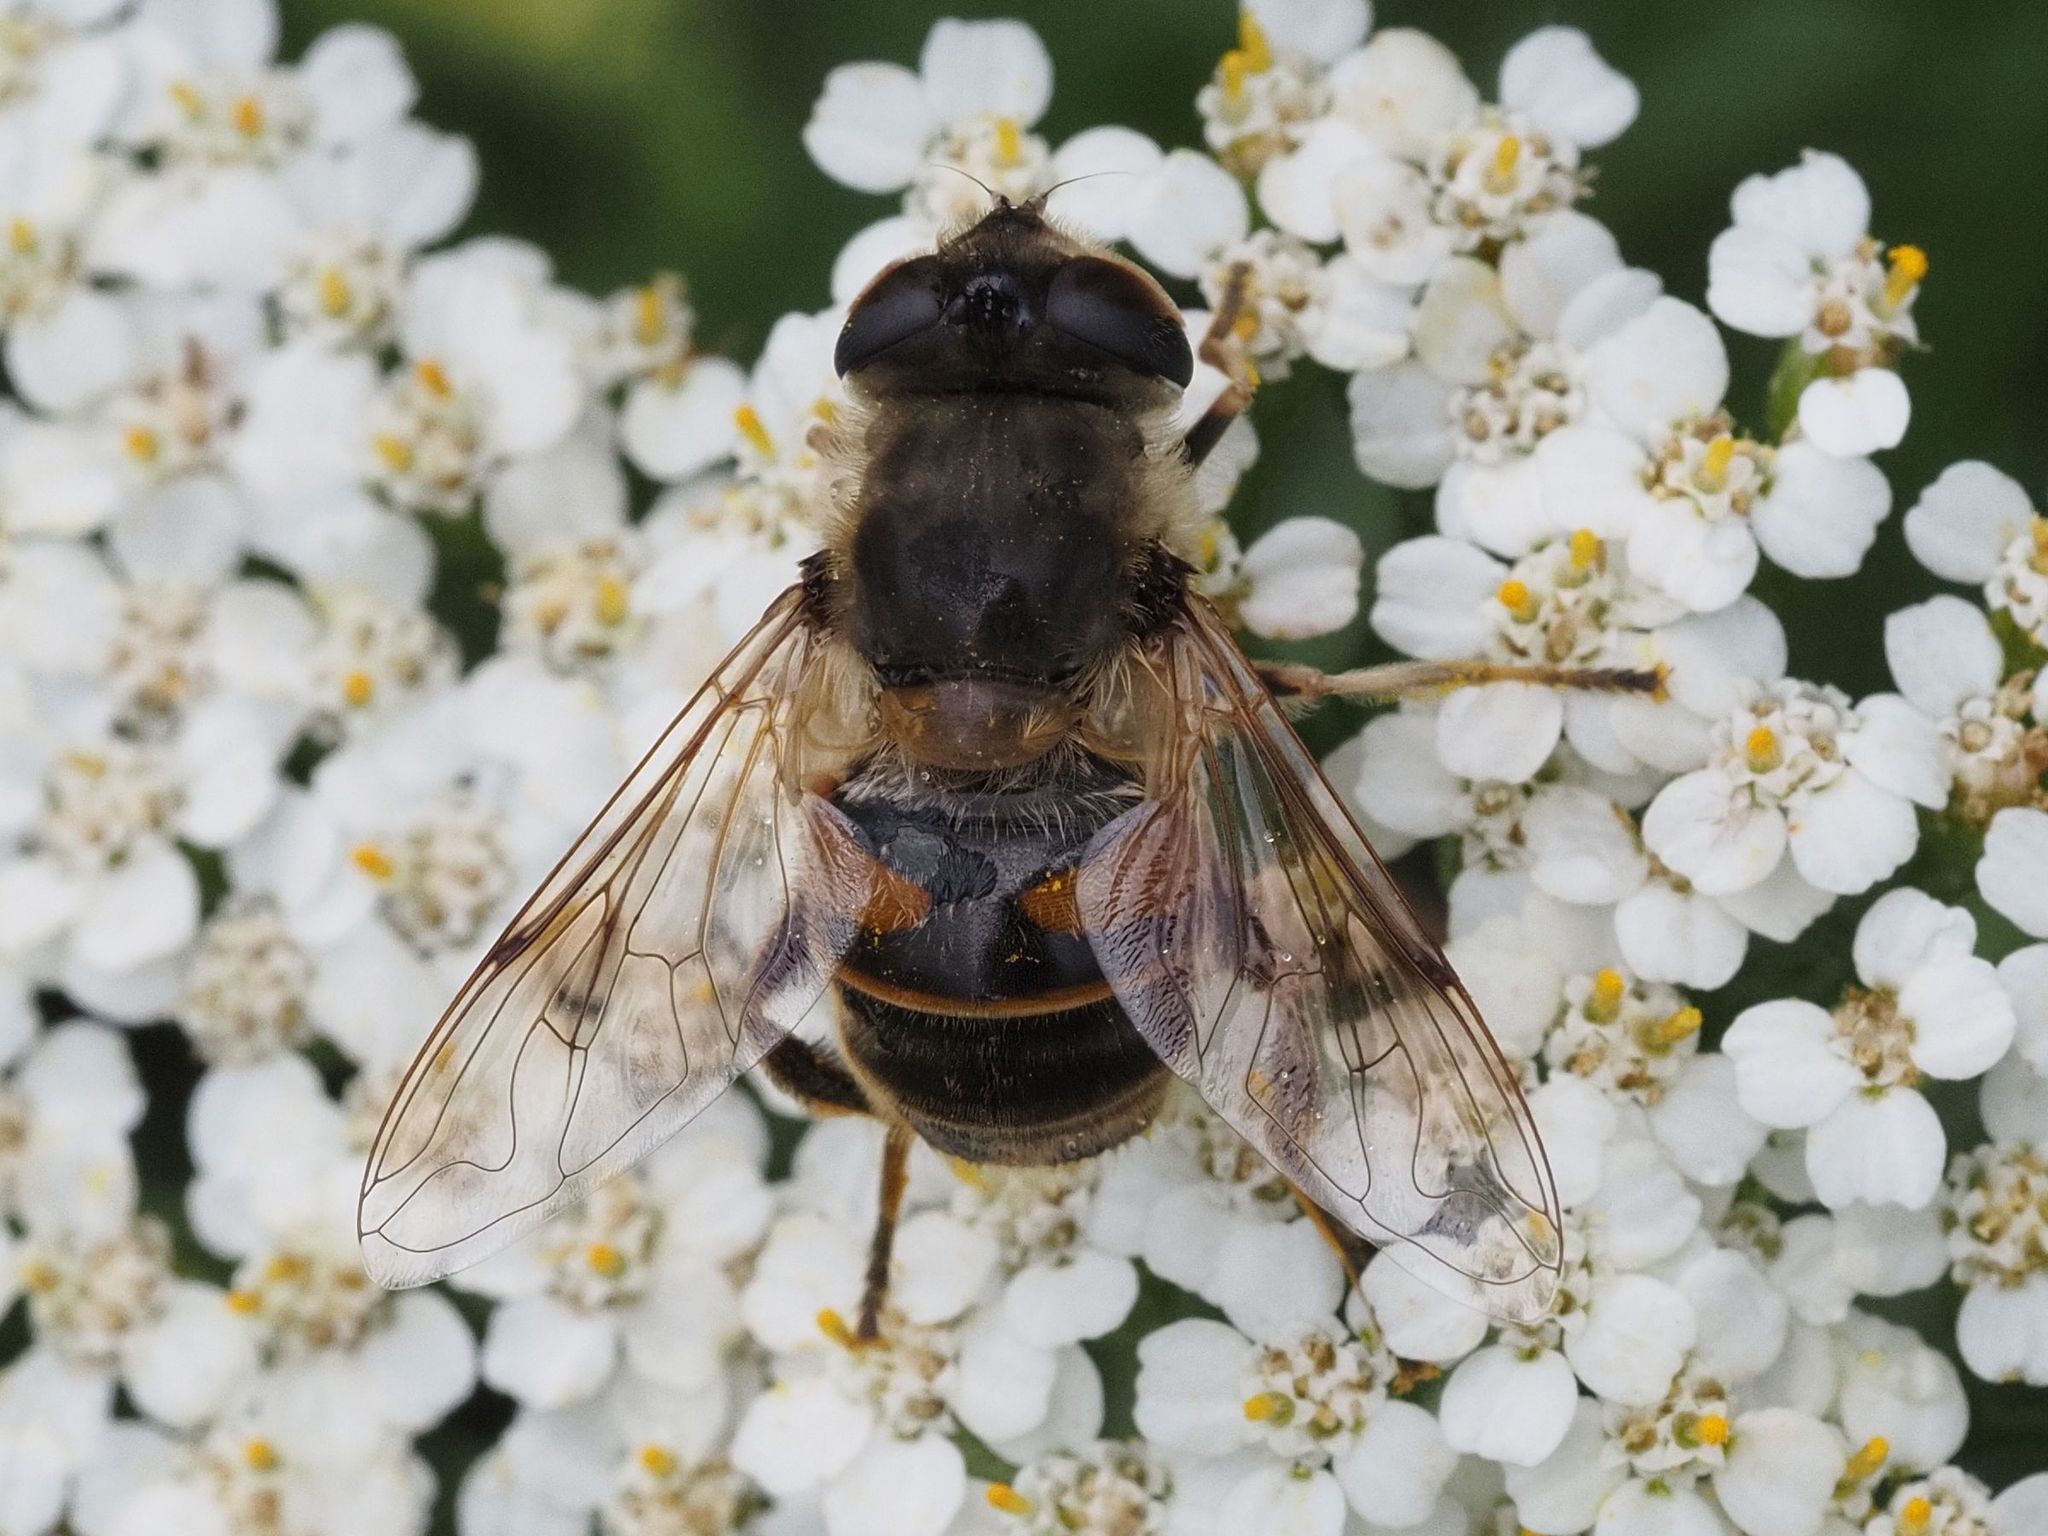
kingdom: Animalia
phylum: Arthropoda
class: Insecta
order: Diptera
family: Syrphidae
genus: Eristalis
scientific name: Eristalis tenax
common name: Drone fly
